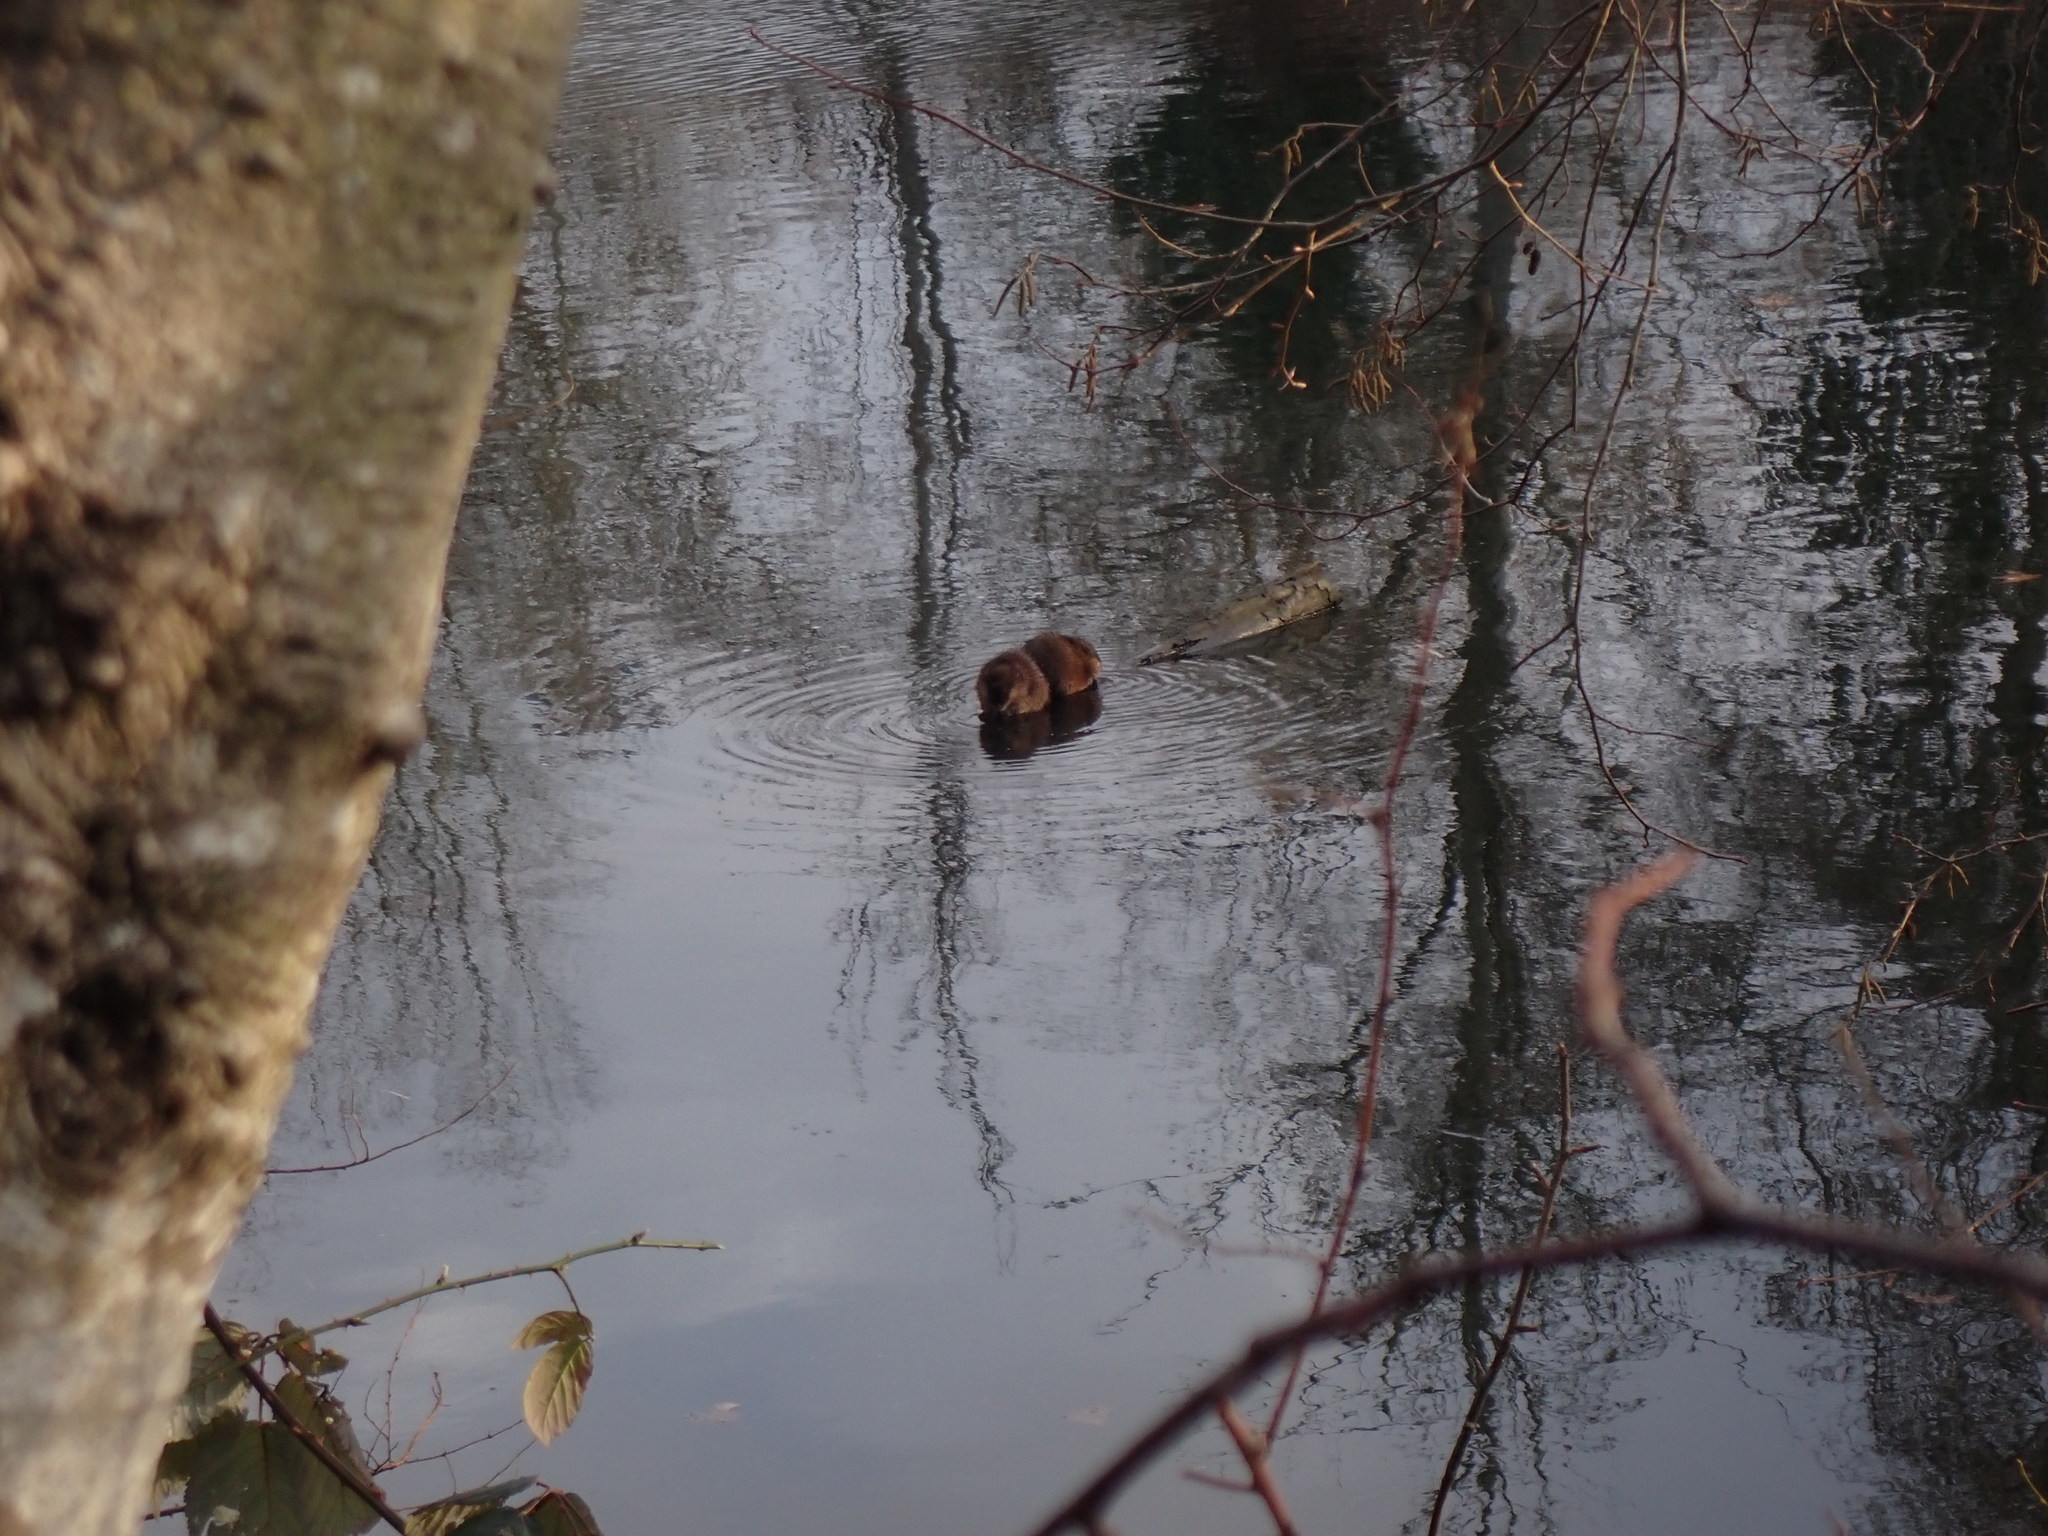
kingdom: Animalia
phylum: Chordata
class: Mammalia
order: Rodentia
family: Cricetidae
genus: Ondatra
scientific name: Ondatra zibethicus
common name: Muskrat
